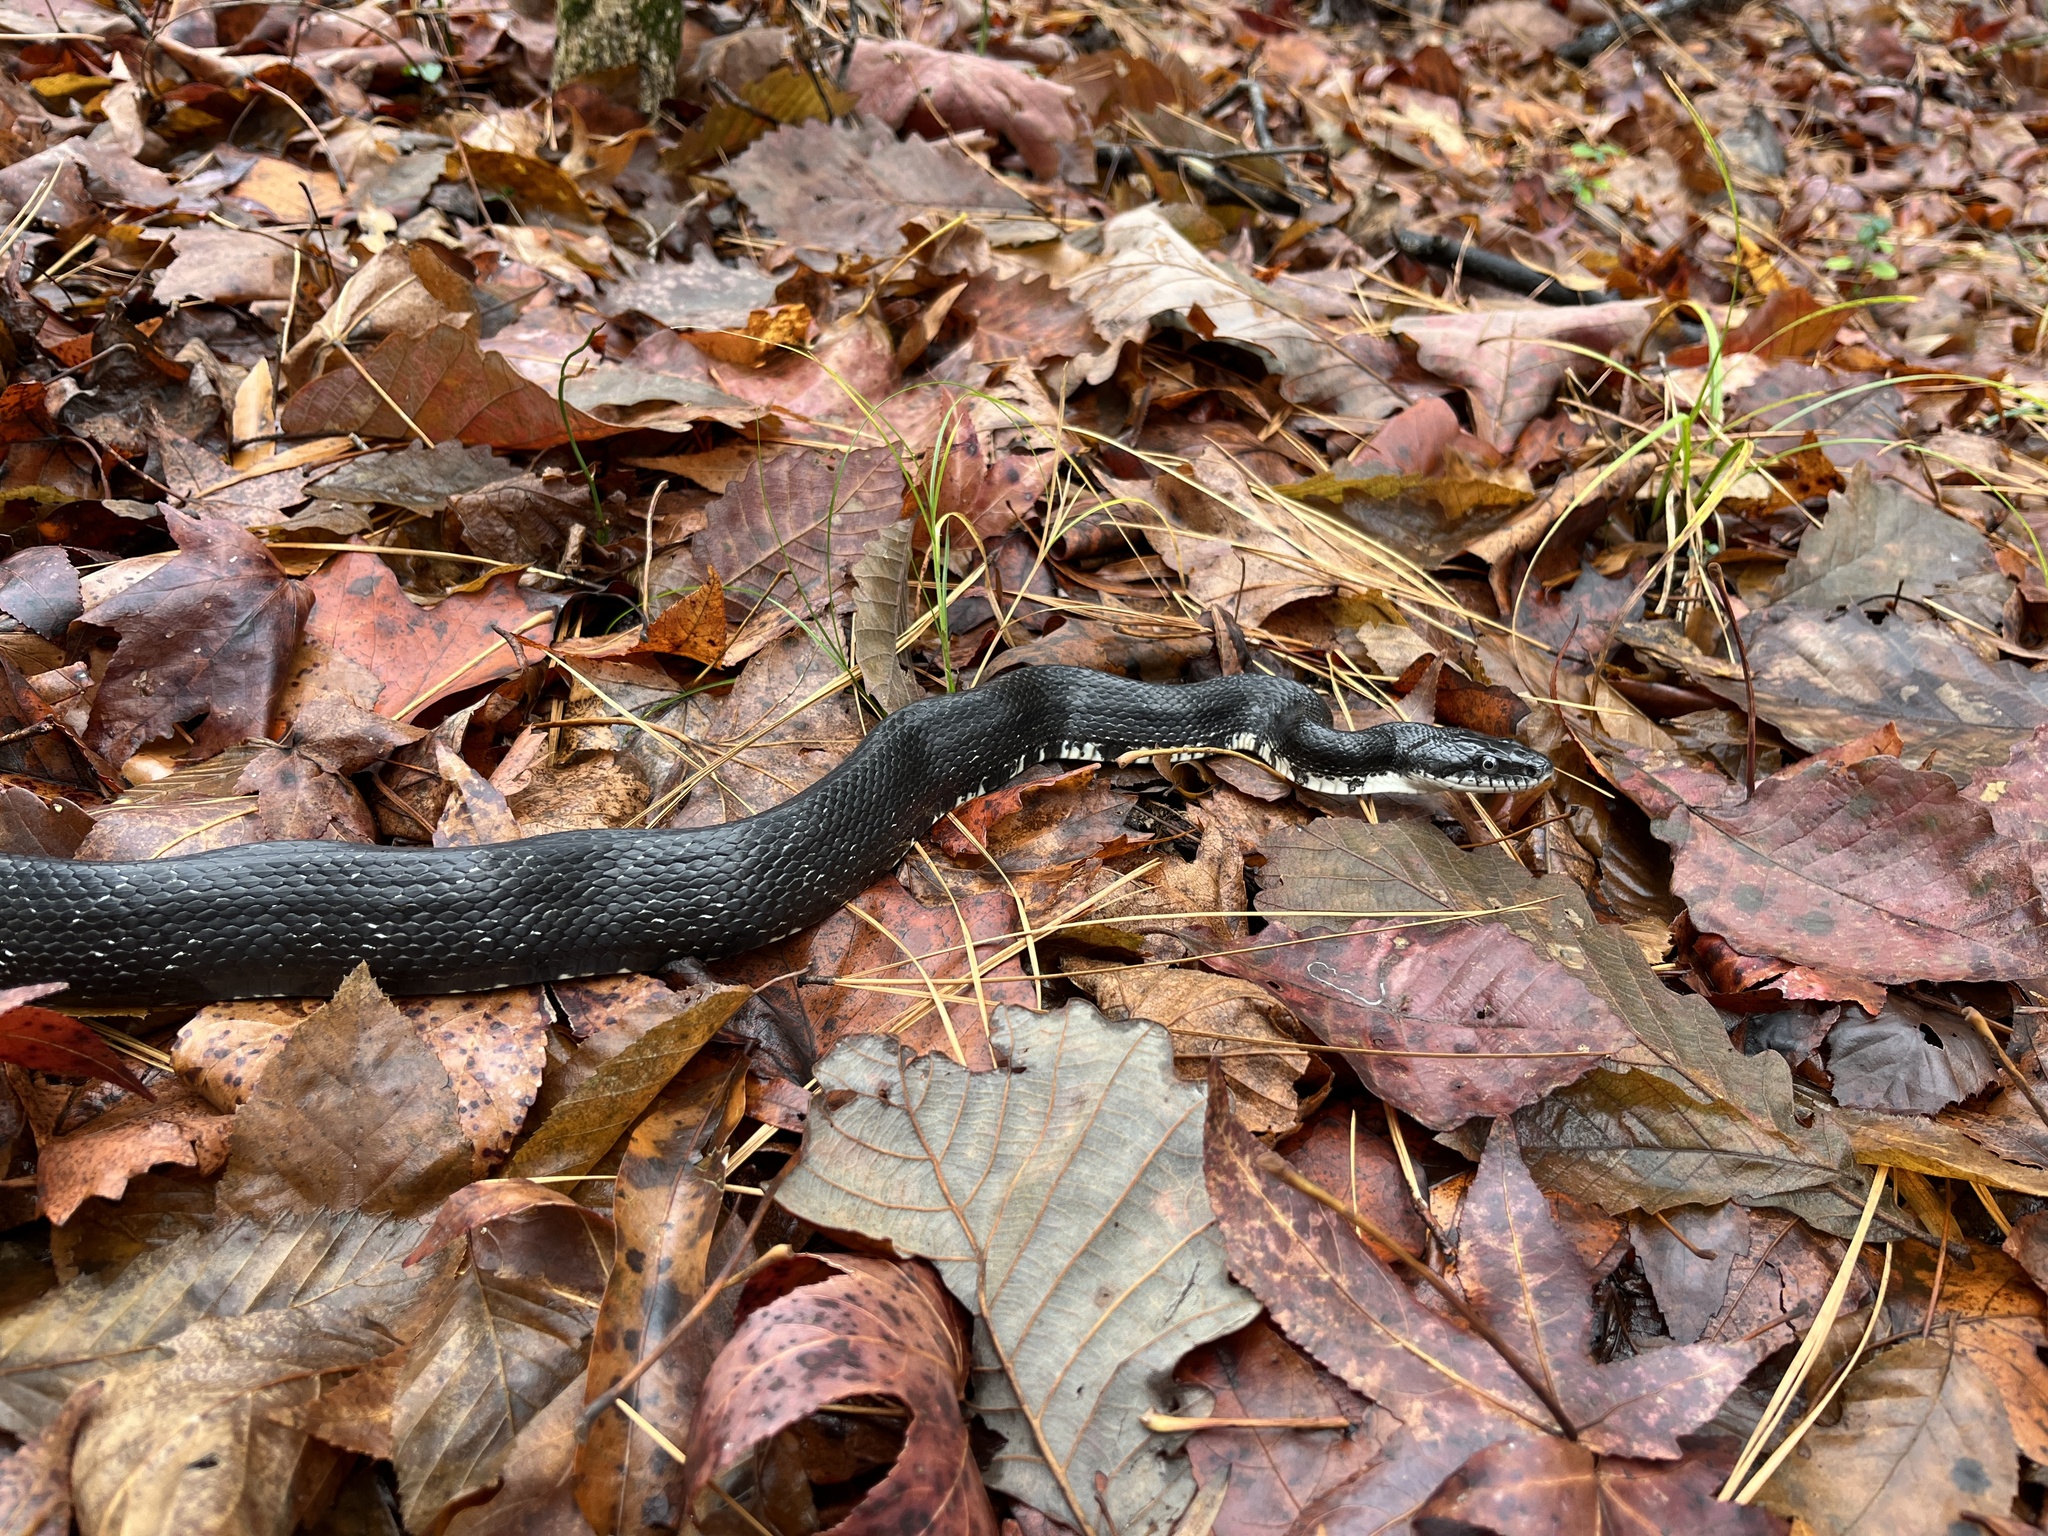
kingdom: Animalia
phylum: Chordata
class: Squamata
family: Colubridae
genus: Pantherophis
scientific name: Pantherophis alleghaniensis
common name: Eastern rat snake
